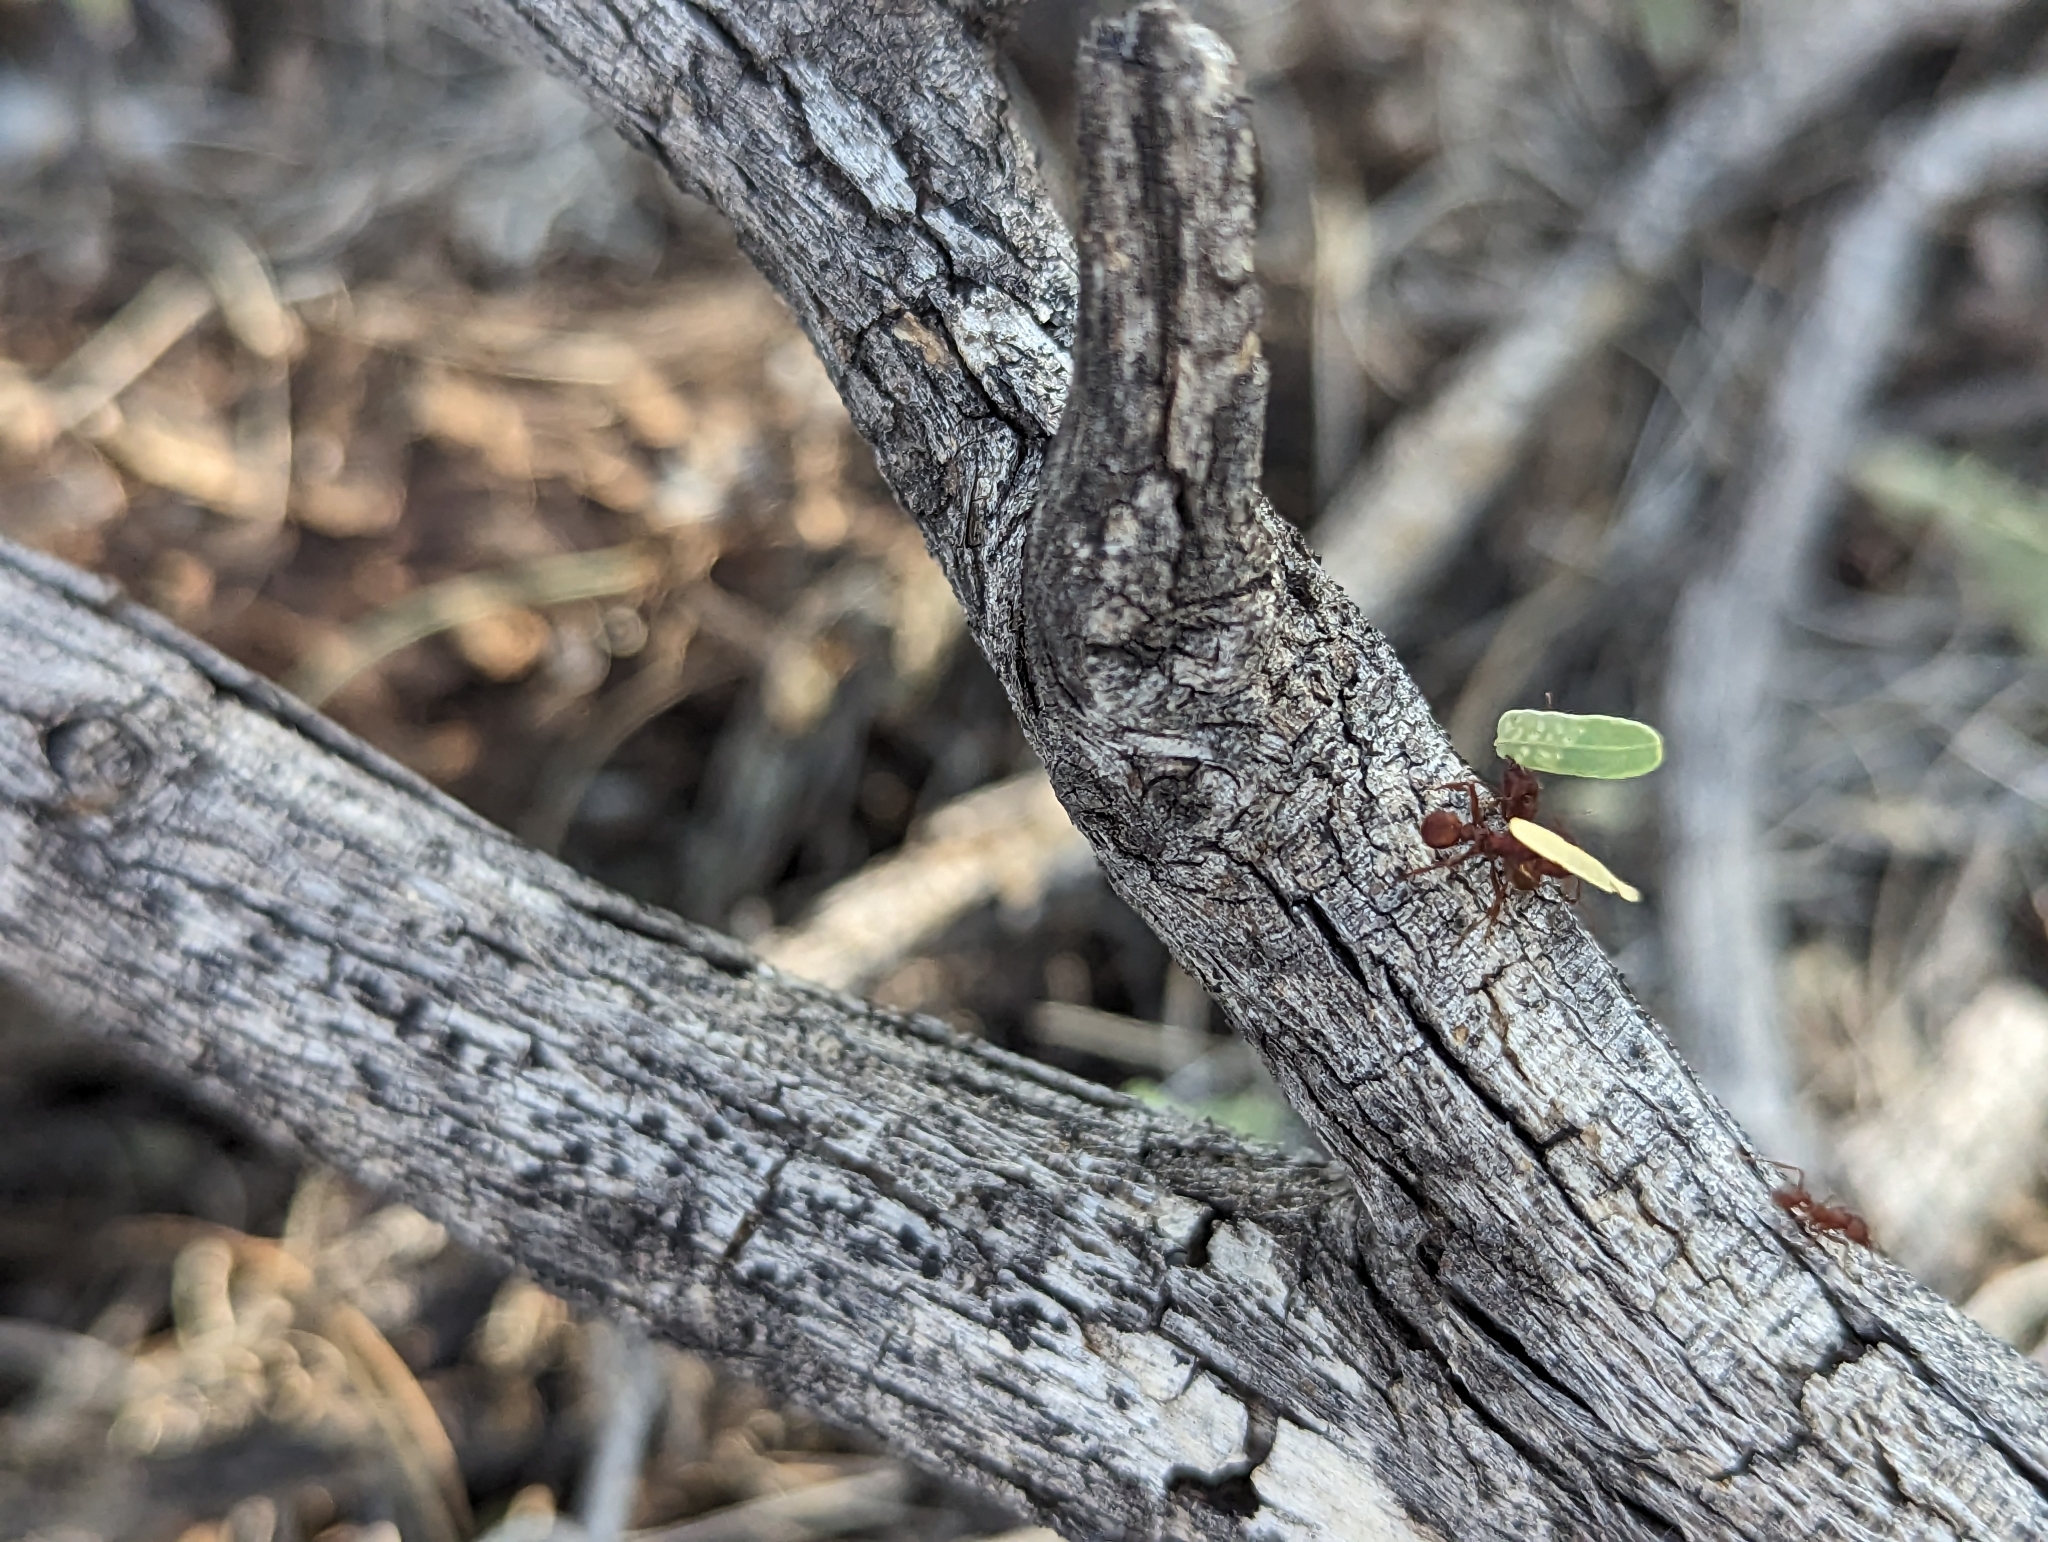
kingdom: Animalia
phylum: Arthropoda
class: Insecta
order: Hymenoptera
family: Formicidae
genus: Acromyrmex
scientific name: Acromyrmex versicolor
